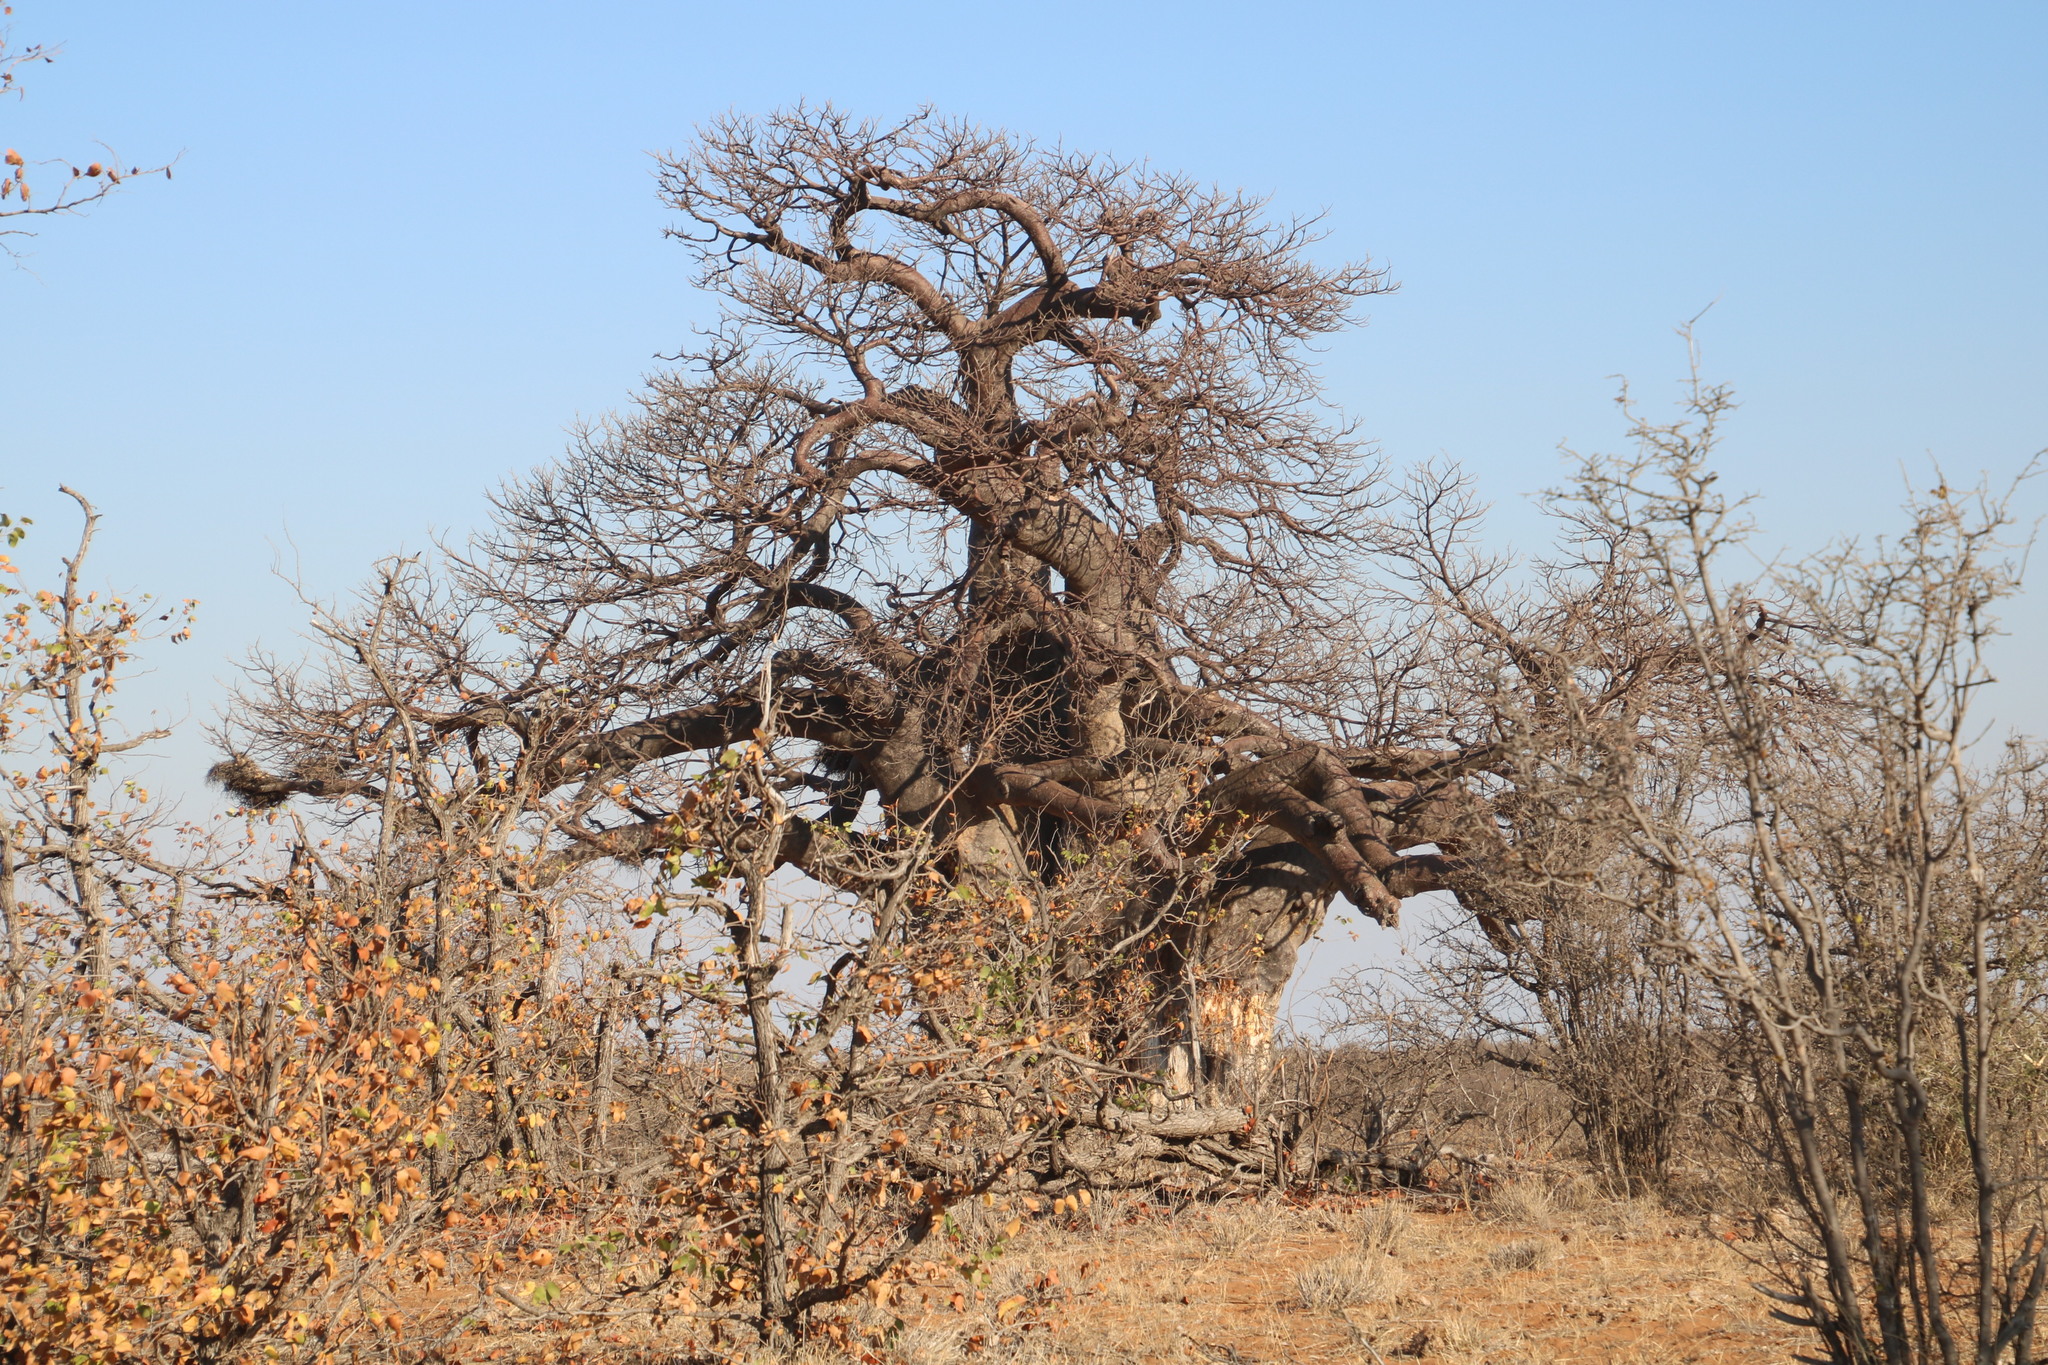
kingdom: Plantae
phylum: Tracheophyta
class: Magnoliopsida
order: Malvales
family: Malvaceae
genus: Adansonia
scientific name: Adansonia digitata
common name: Dead-rat-tree
